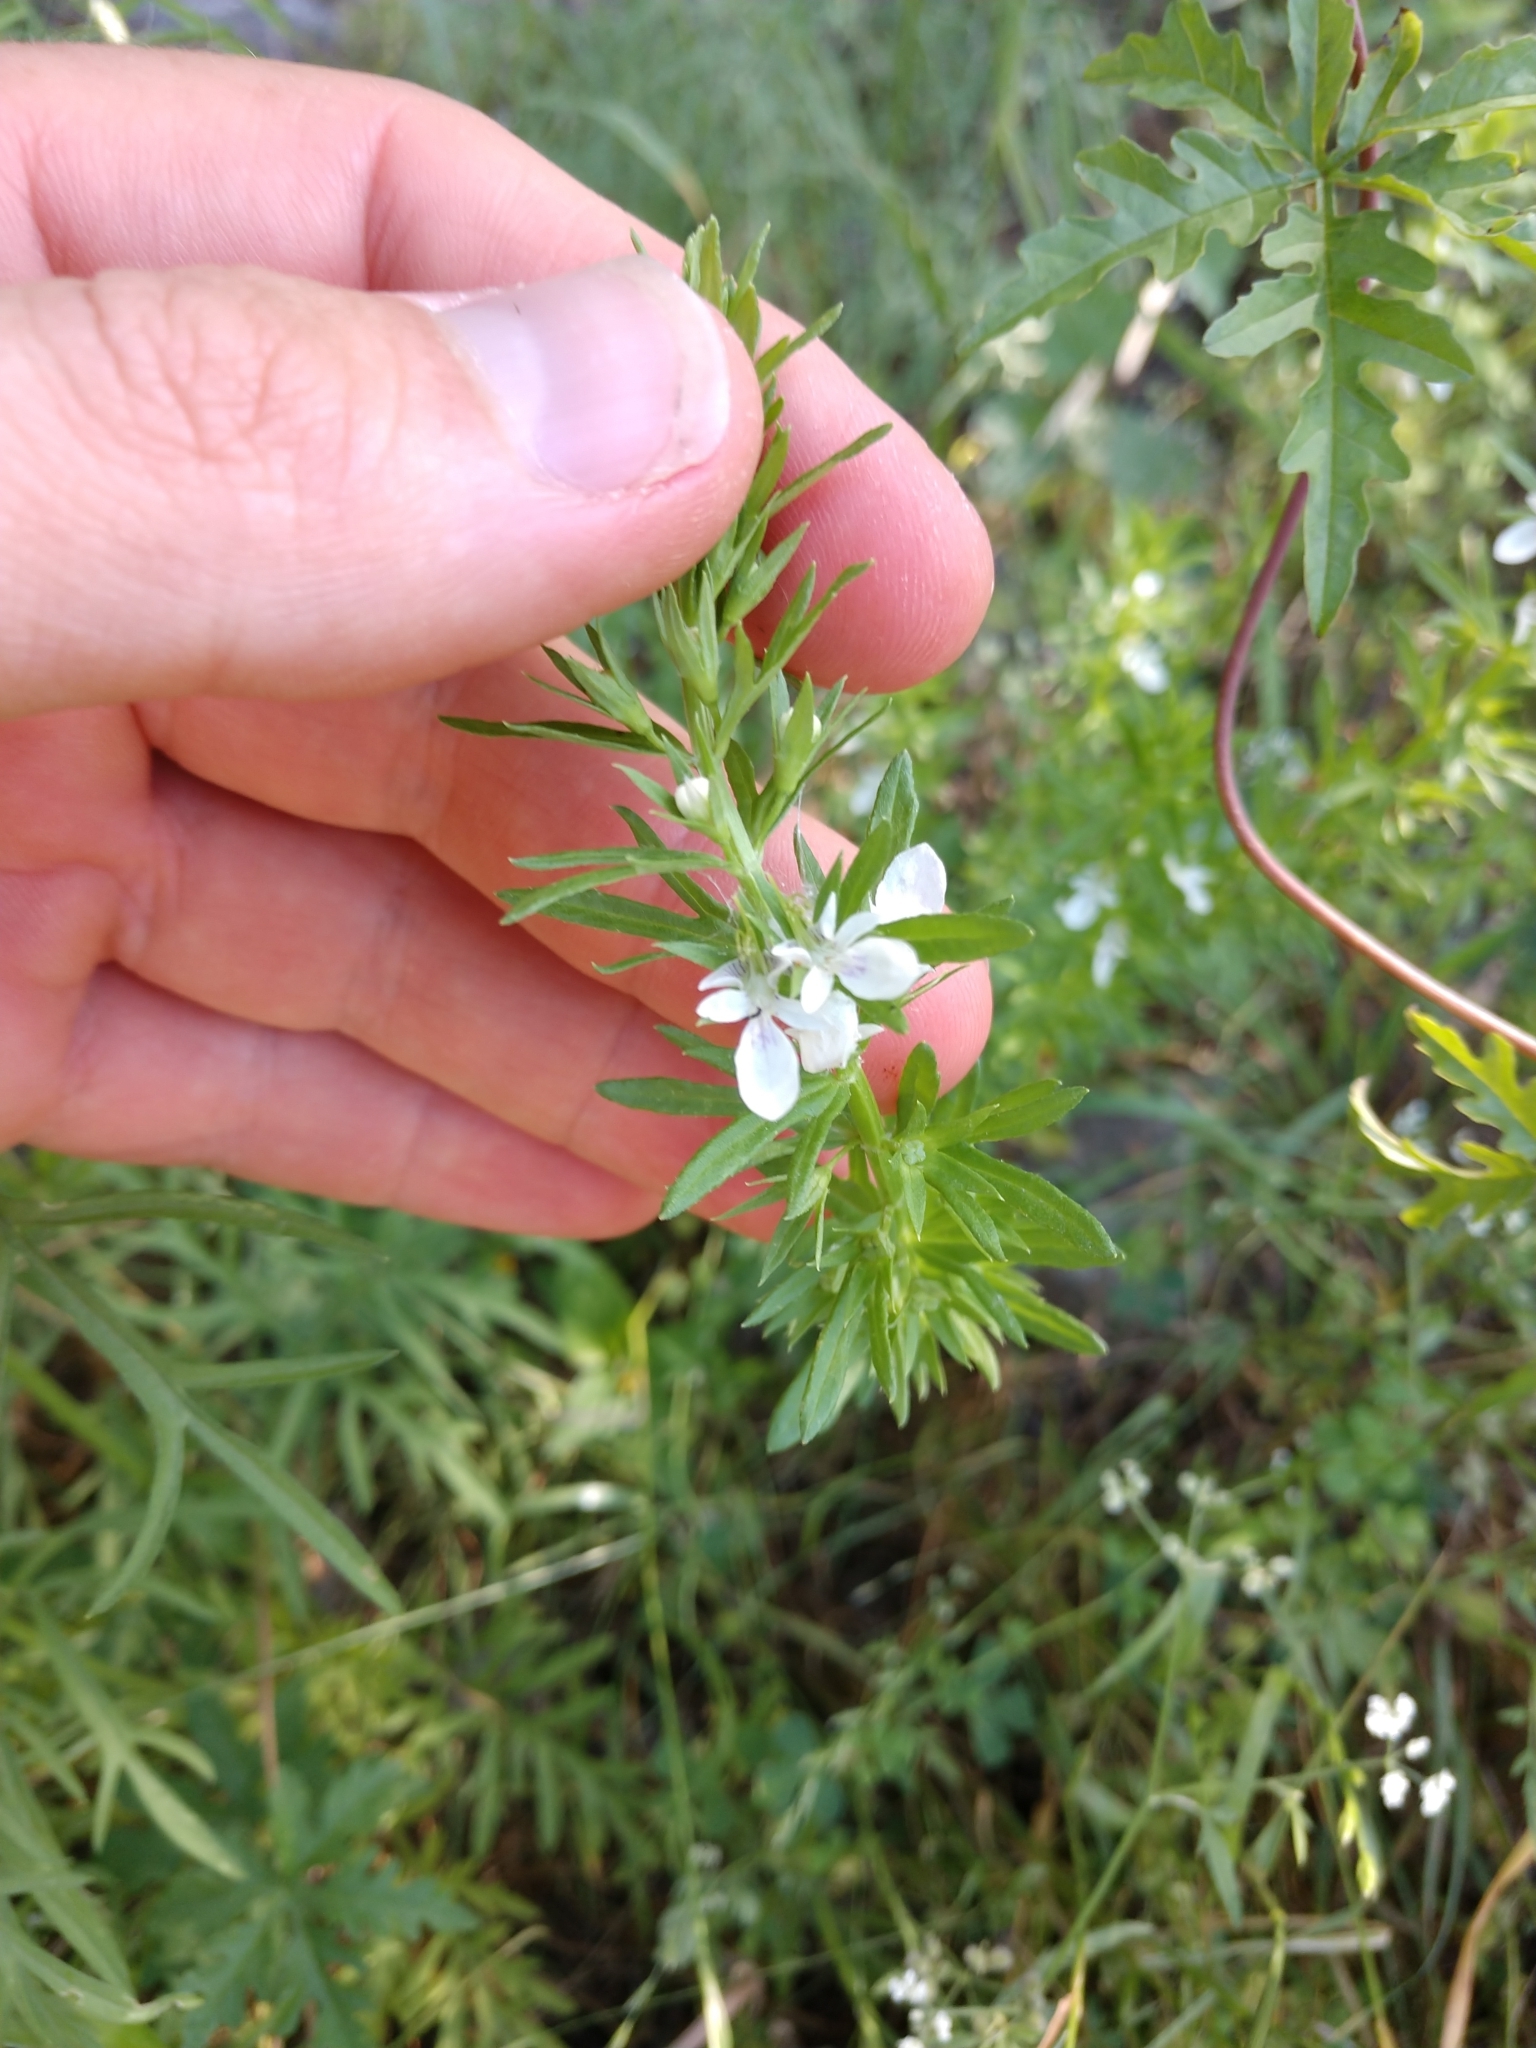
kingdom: Plantae
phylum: Tracheophyta
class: Magnoliopsida
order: Lamiales
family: Lamiaceae
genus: Teucrium
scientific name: Teucrium cubense
